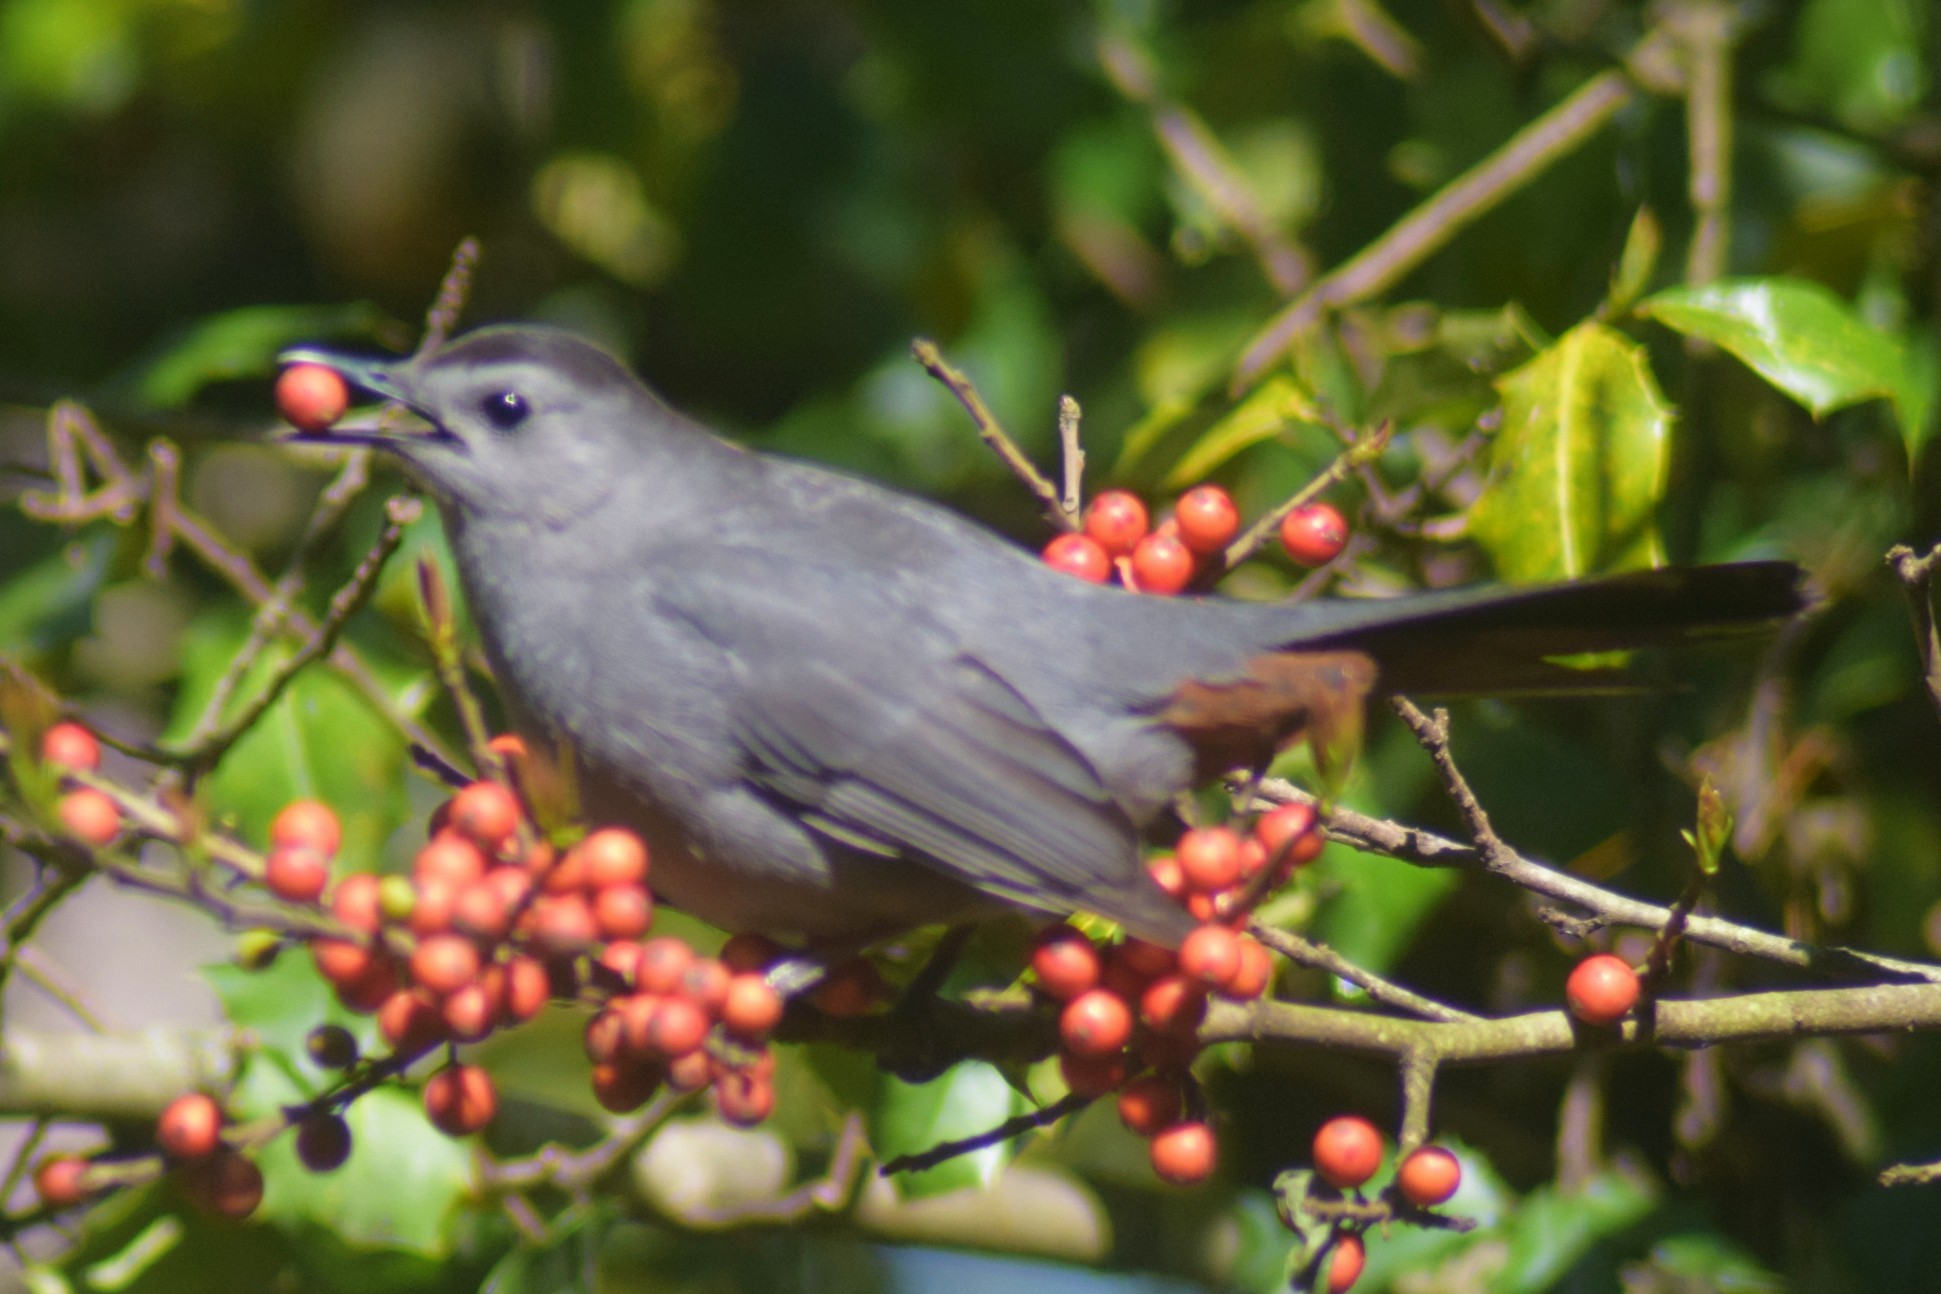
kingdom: Animalia
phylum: Chordata
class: Aves
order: Passeriformes
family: Mimidae
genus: Dumetella
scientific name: Dumetella carolinensis
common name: Gray catbird
